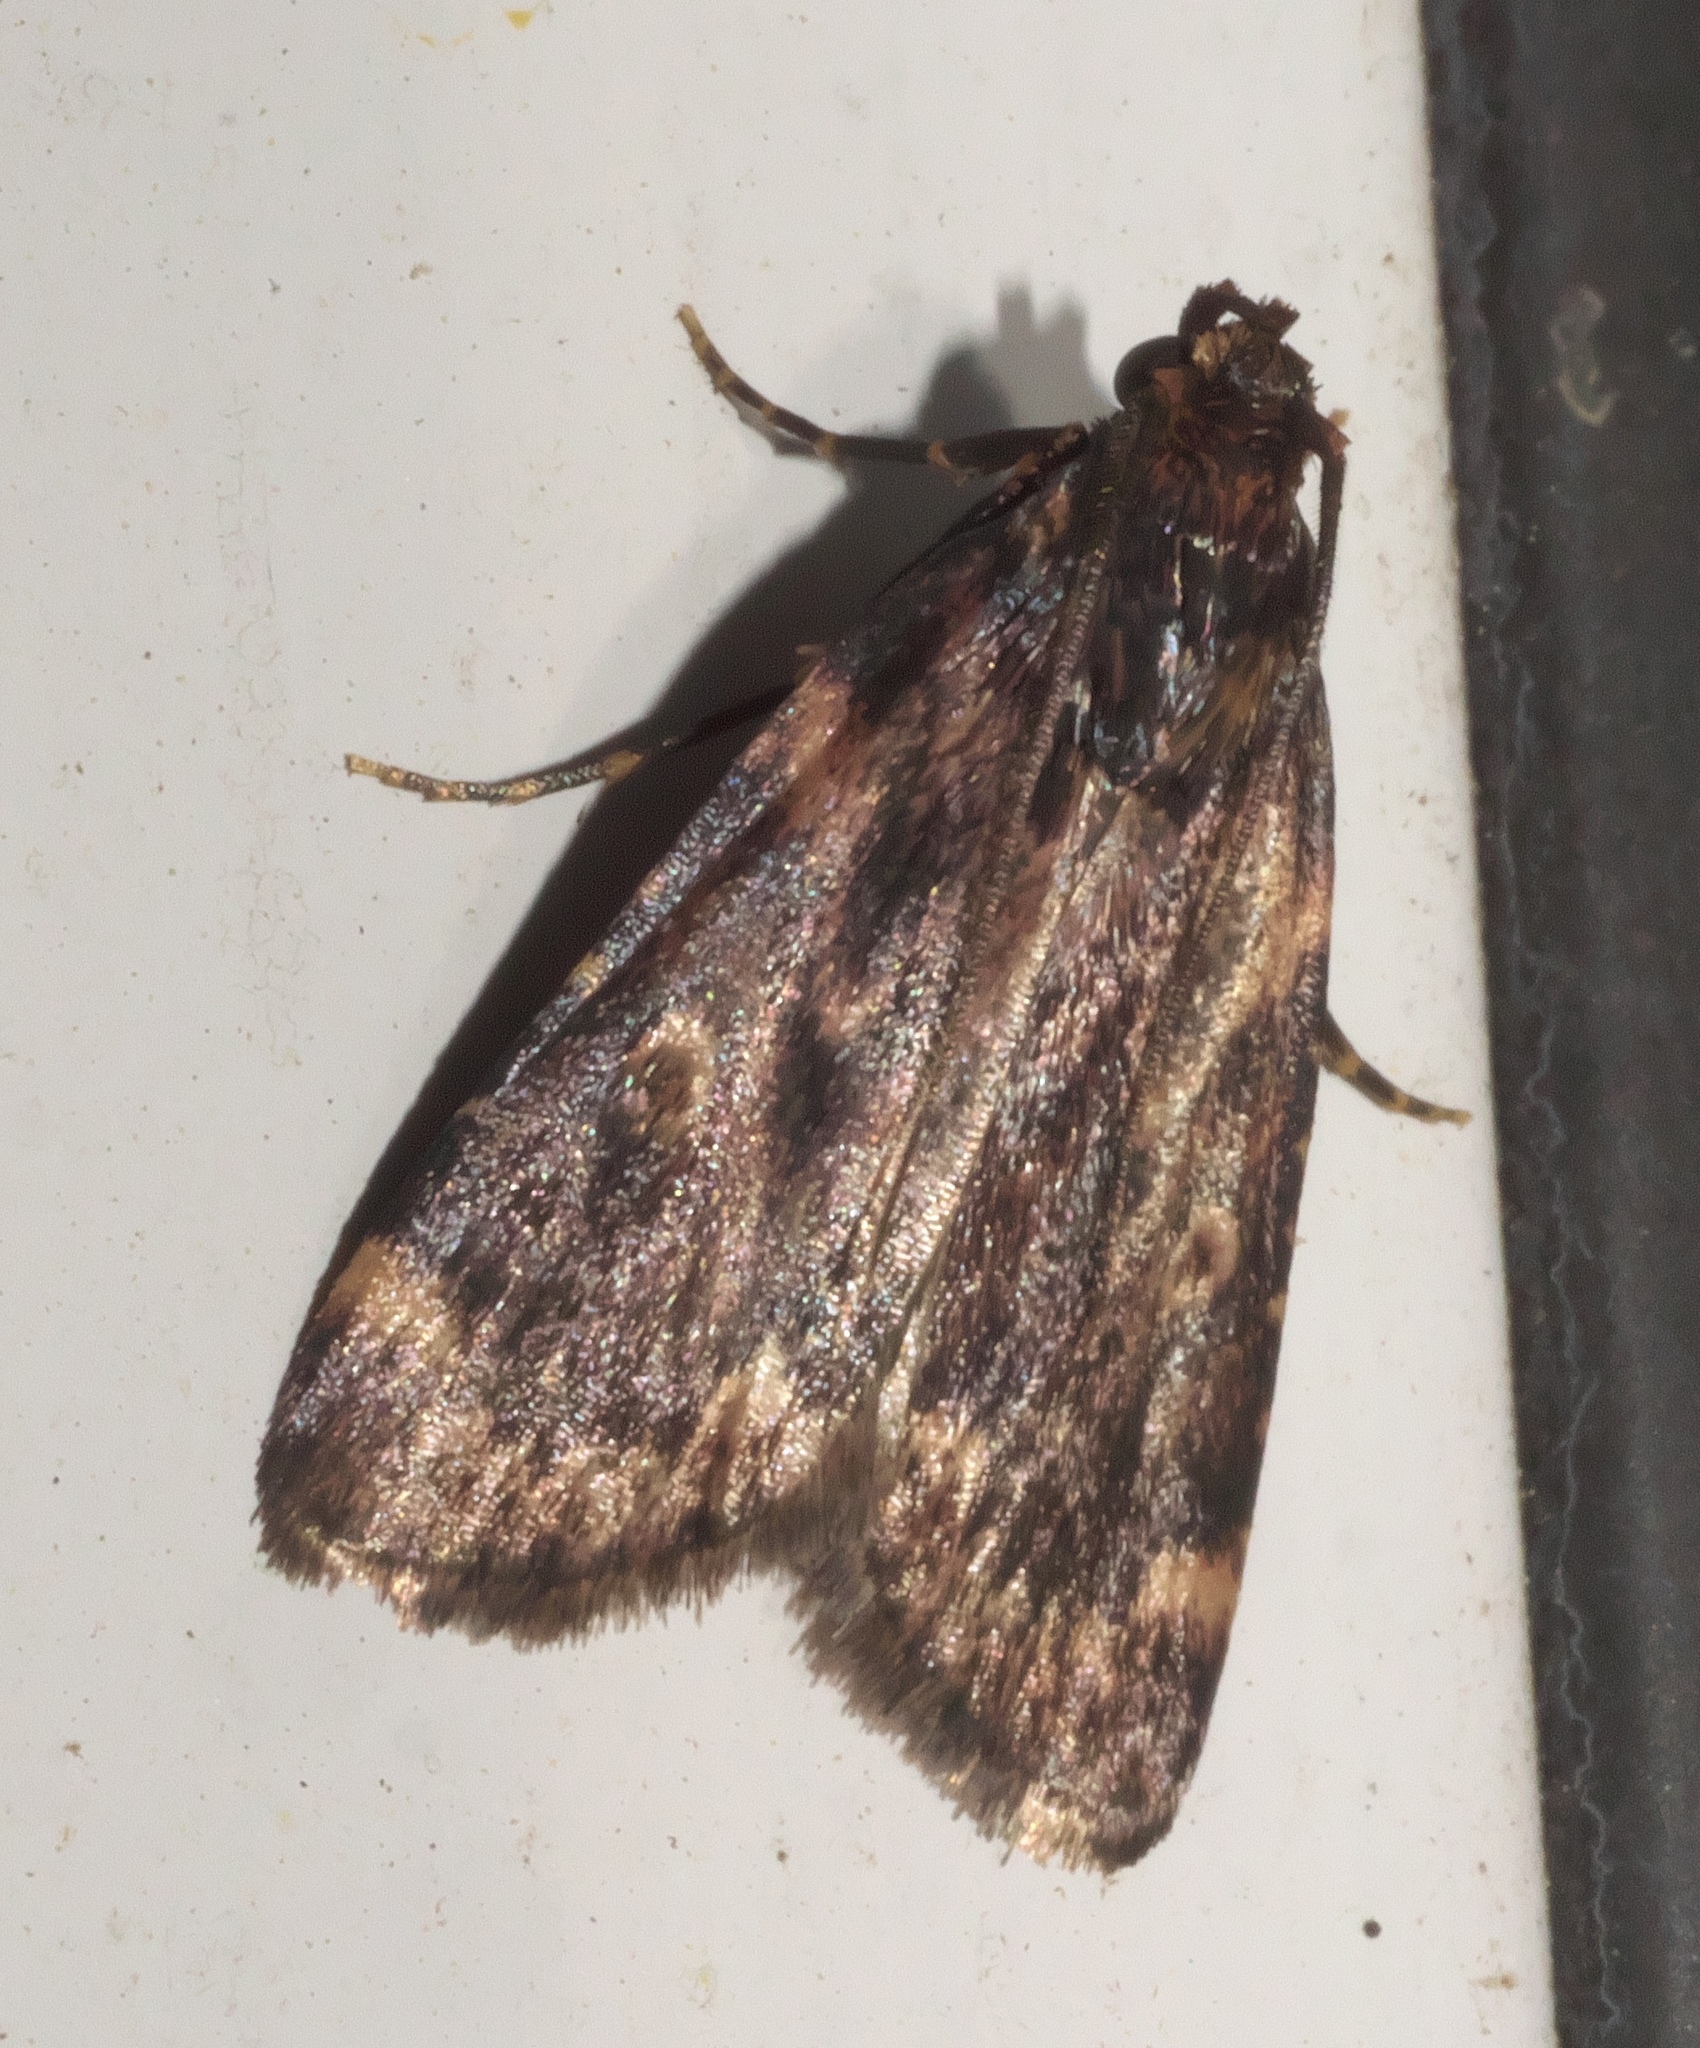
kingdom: Animalia
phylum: Arthropoda
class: Insecta
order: Lepidoptera
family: Pyralidae
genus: Aglossa
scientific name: Aglossa cuprina
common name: Grease moth
